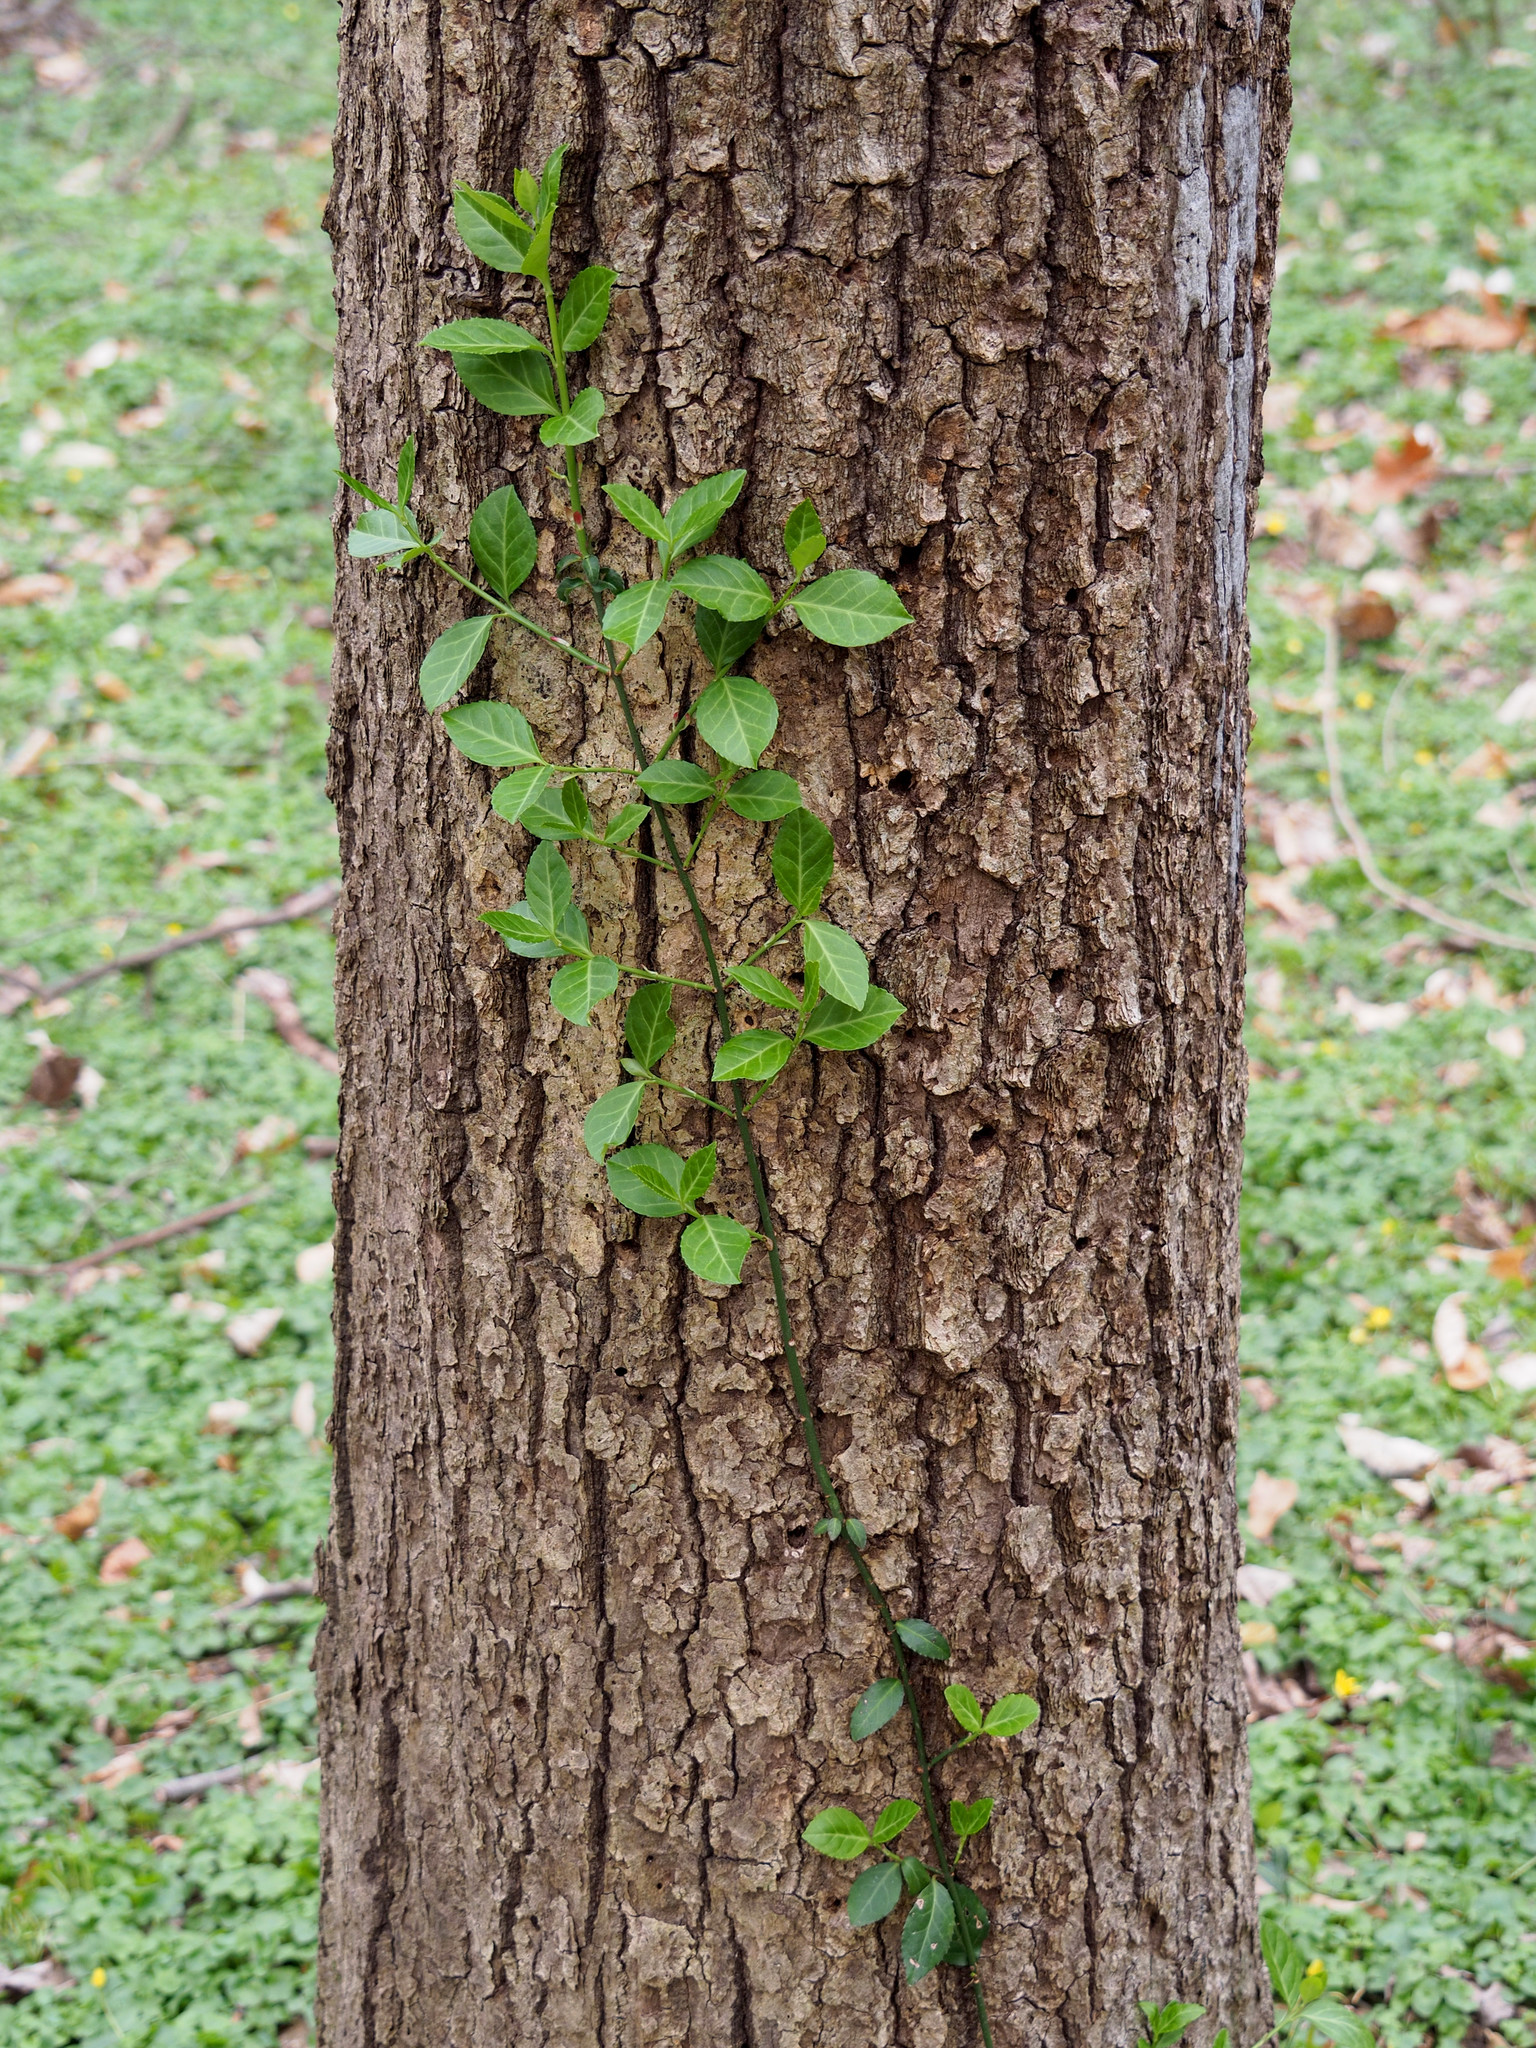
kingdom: Plantae
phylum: Tracheophyta
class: Magnoliopsida
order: Celastrales
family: Celastraceae
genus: Euonymus
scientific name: Euonymus fortunei
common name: Climbing euonymus
